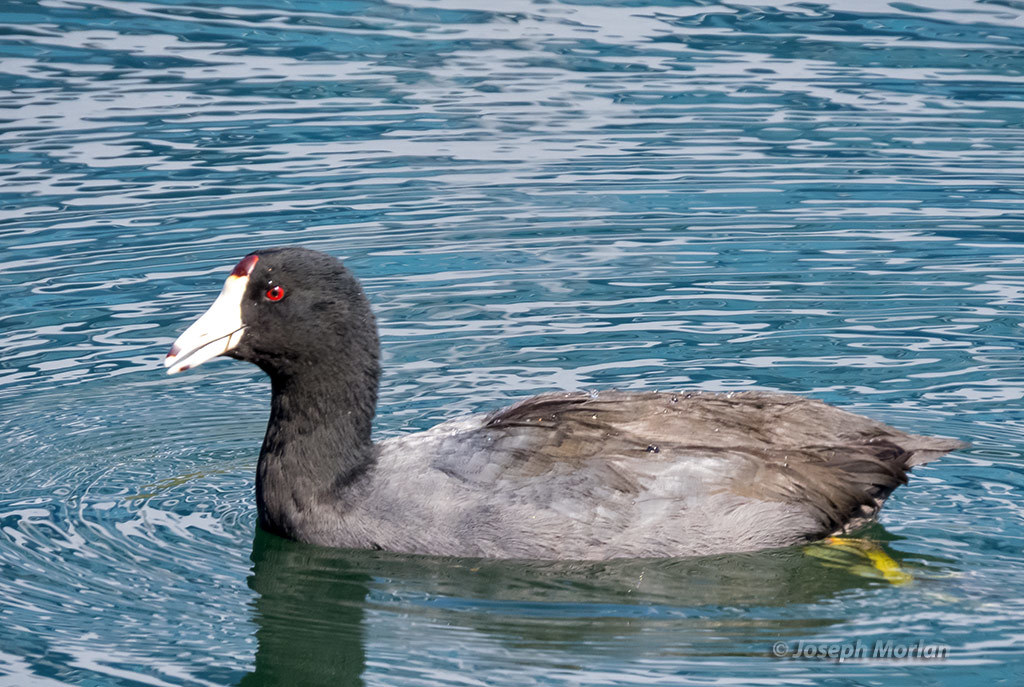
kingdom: Animalia
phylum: Chordata
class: Aves
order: Gruiformes
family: Rallidae
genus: Fulica
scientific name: Fulica americana
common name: American coot
